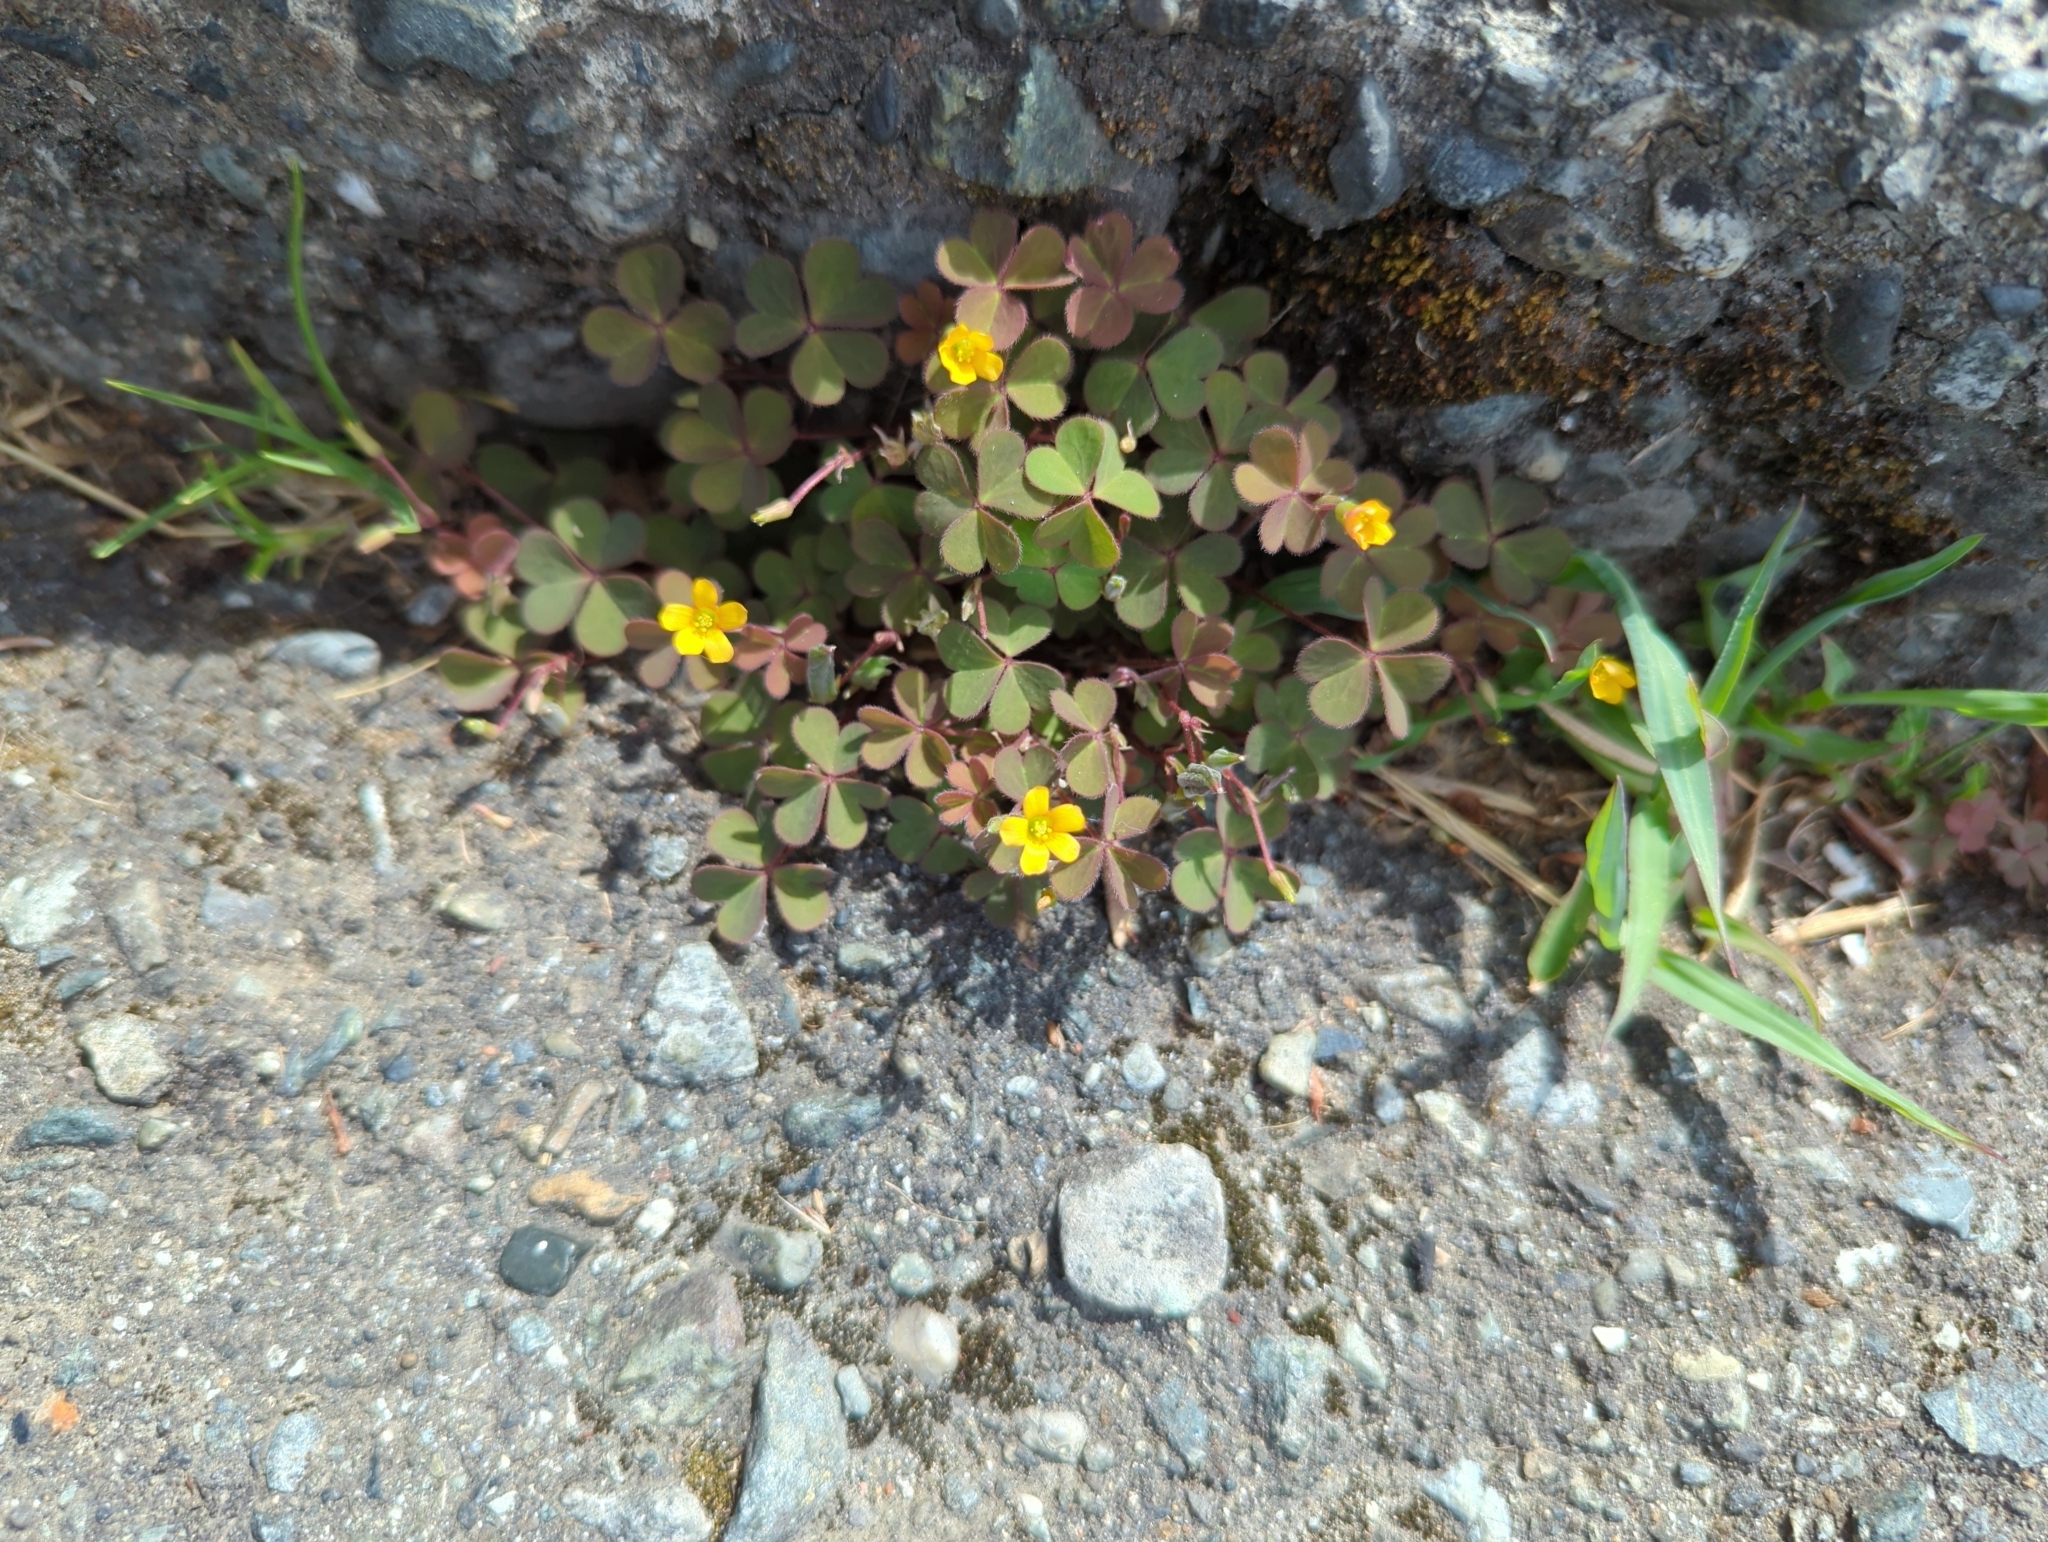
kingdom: Plantae
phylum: Tracheophyta
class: Magnoliopsida
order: Oxalidales
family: Oxalidaceae
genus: Oxalis
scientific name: Oxalis corniculata
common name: Procumbent yellow-sorrel
